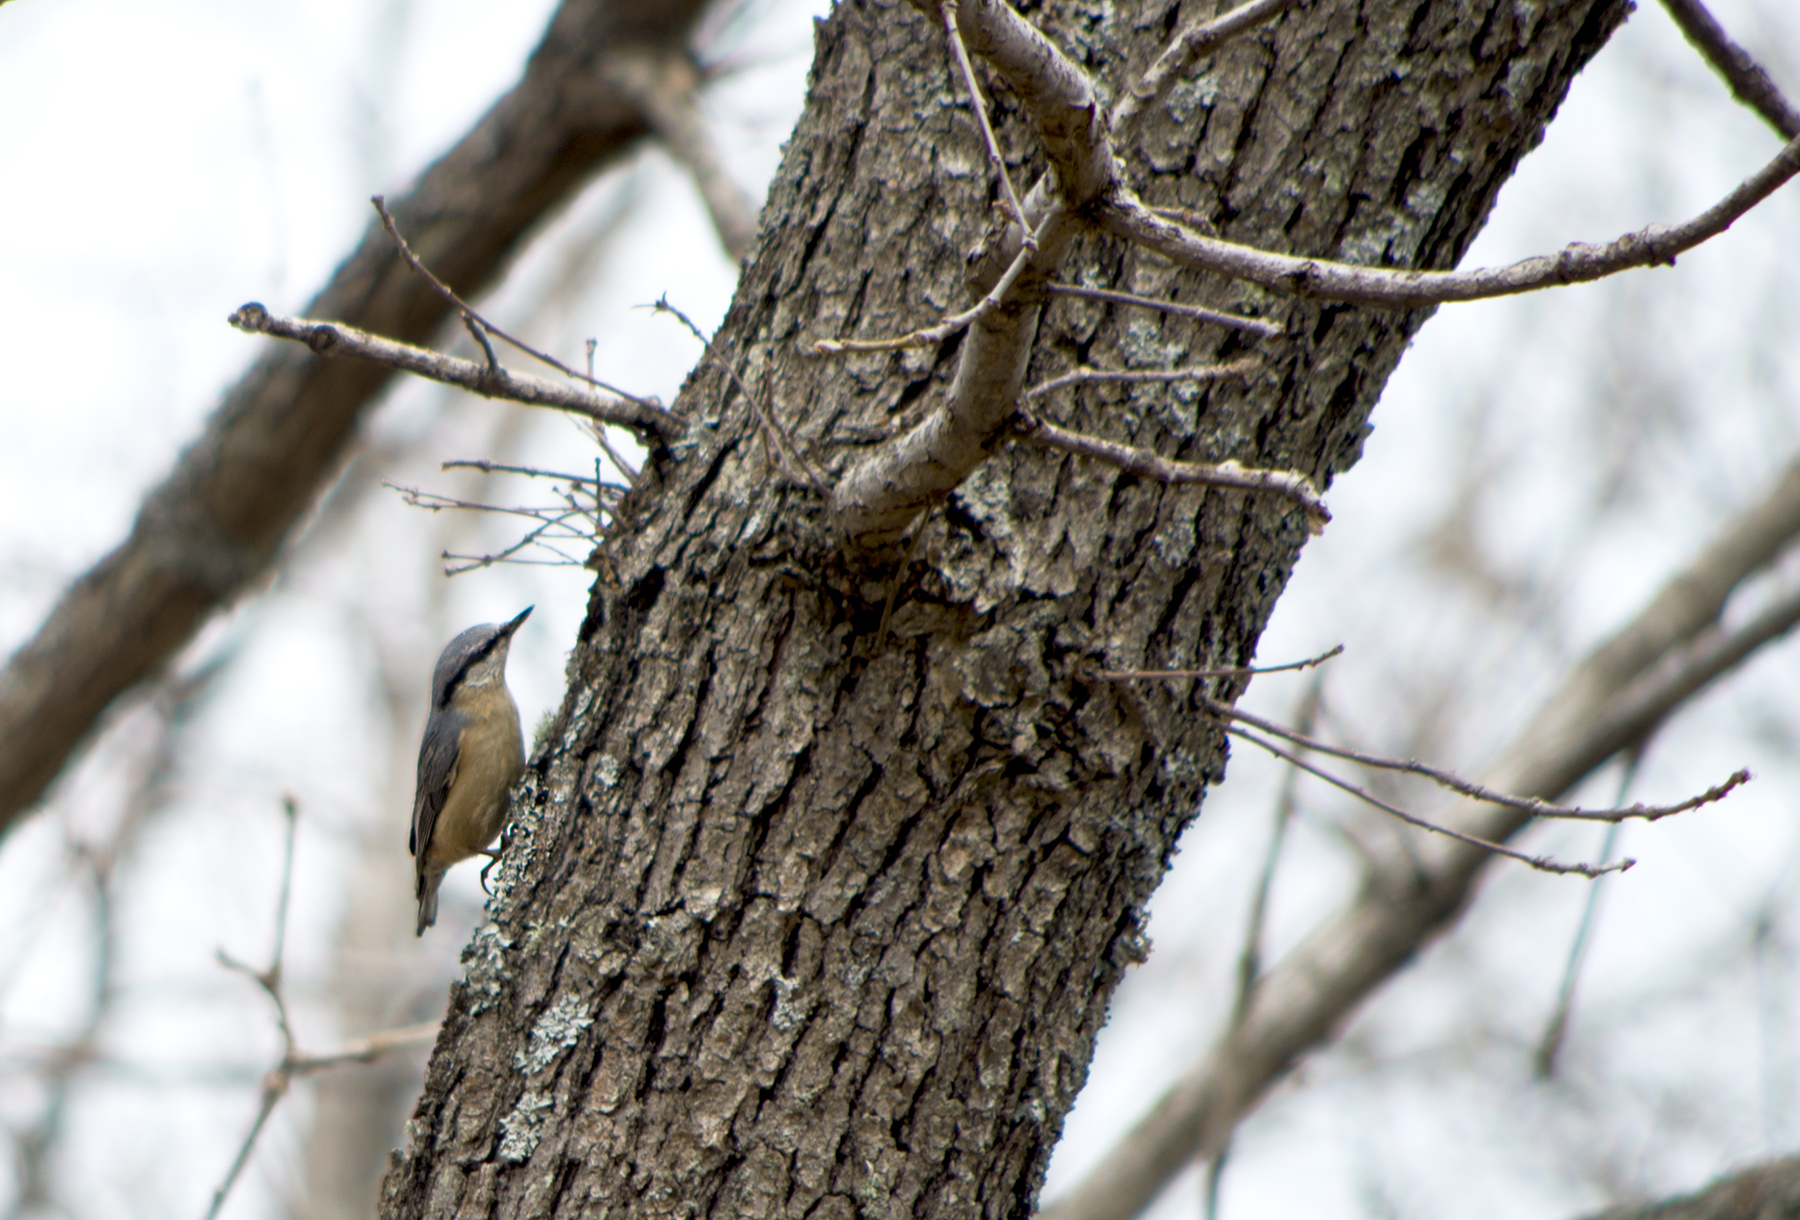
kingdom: Animalia
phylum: Chordata
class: Aves
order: Passeriformes
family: Sittidae
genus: Sitta
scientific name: Sitta europaea
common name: Eurasian nuthatch
